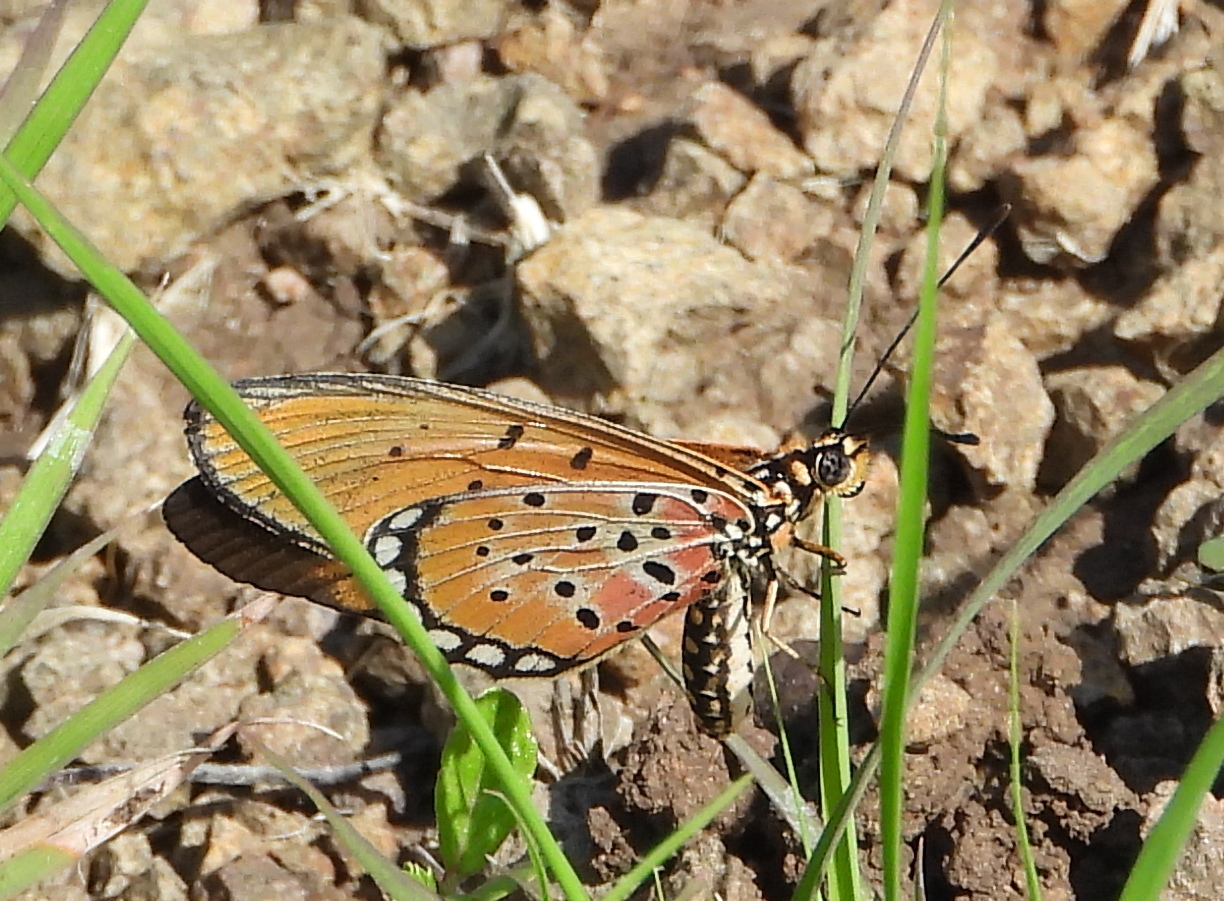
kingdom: Animalia
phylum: Arthropoda
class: Insecta
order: Lepidoptera
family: Nymphalidae
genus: Stephenia
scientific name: Stephenia
